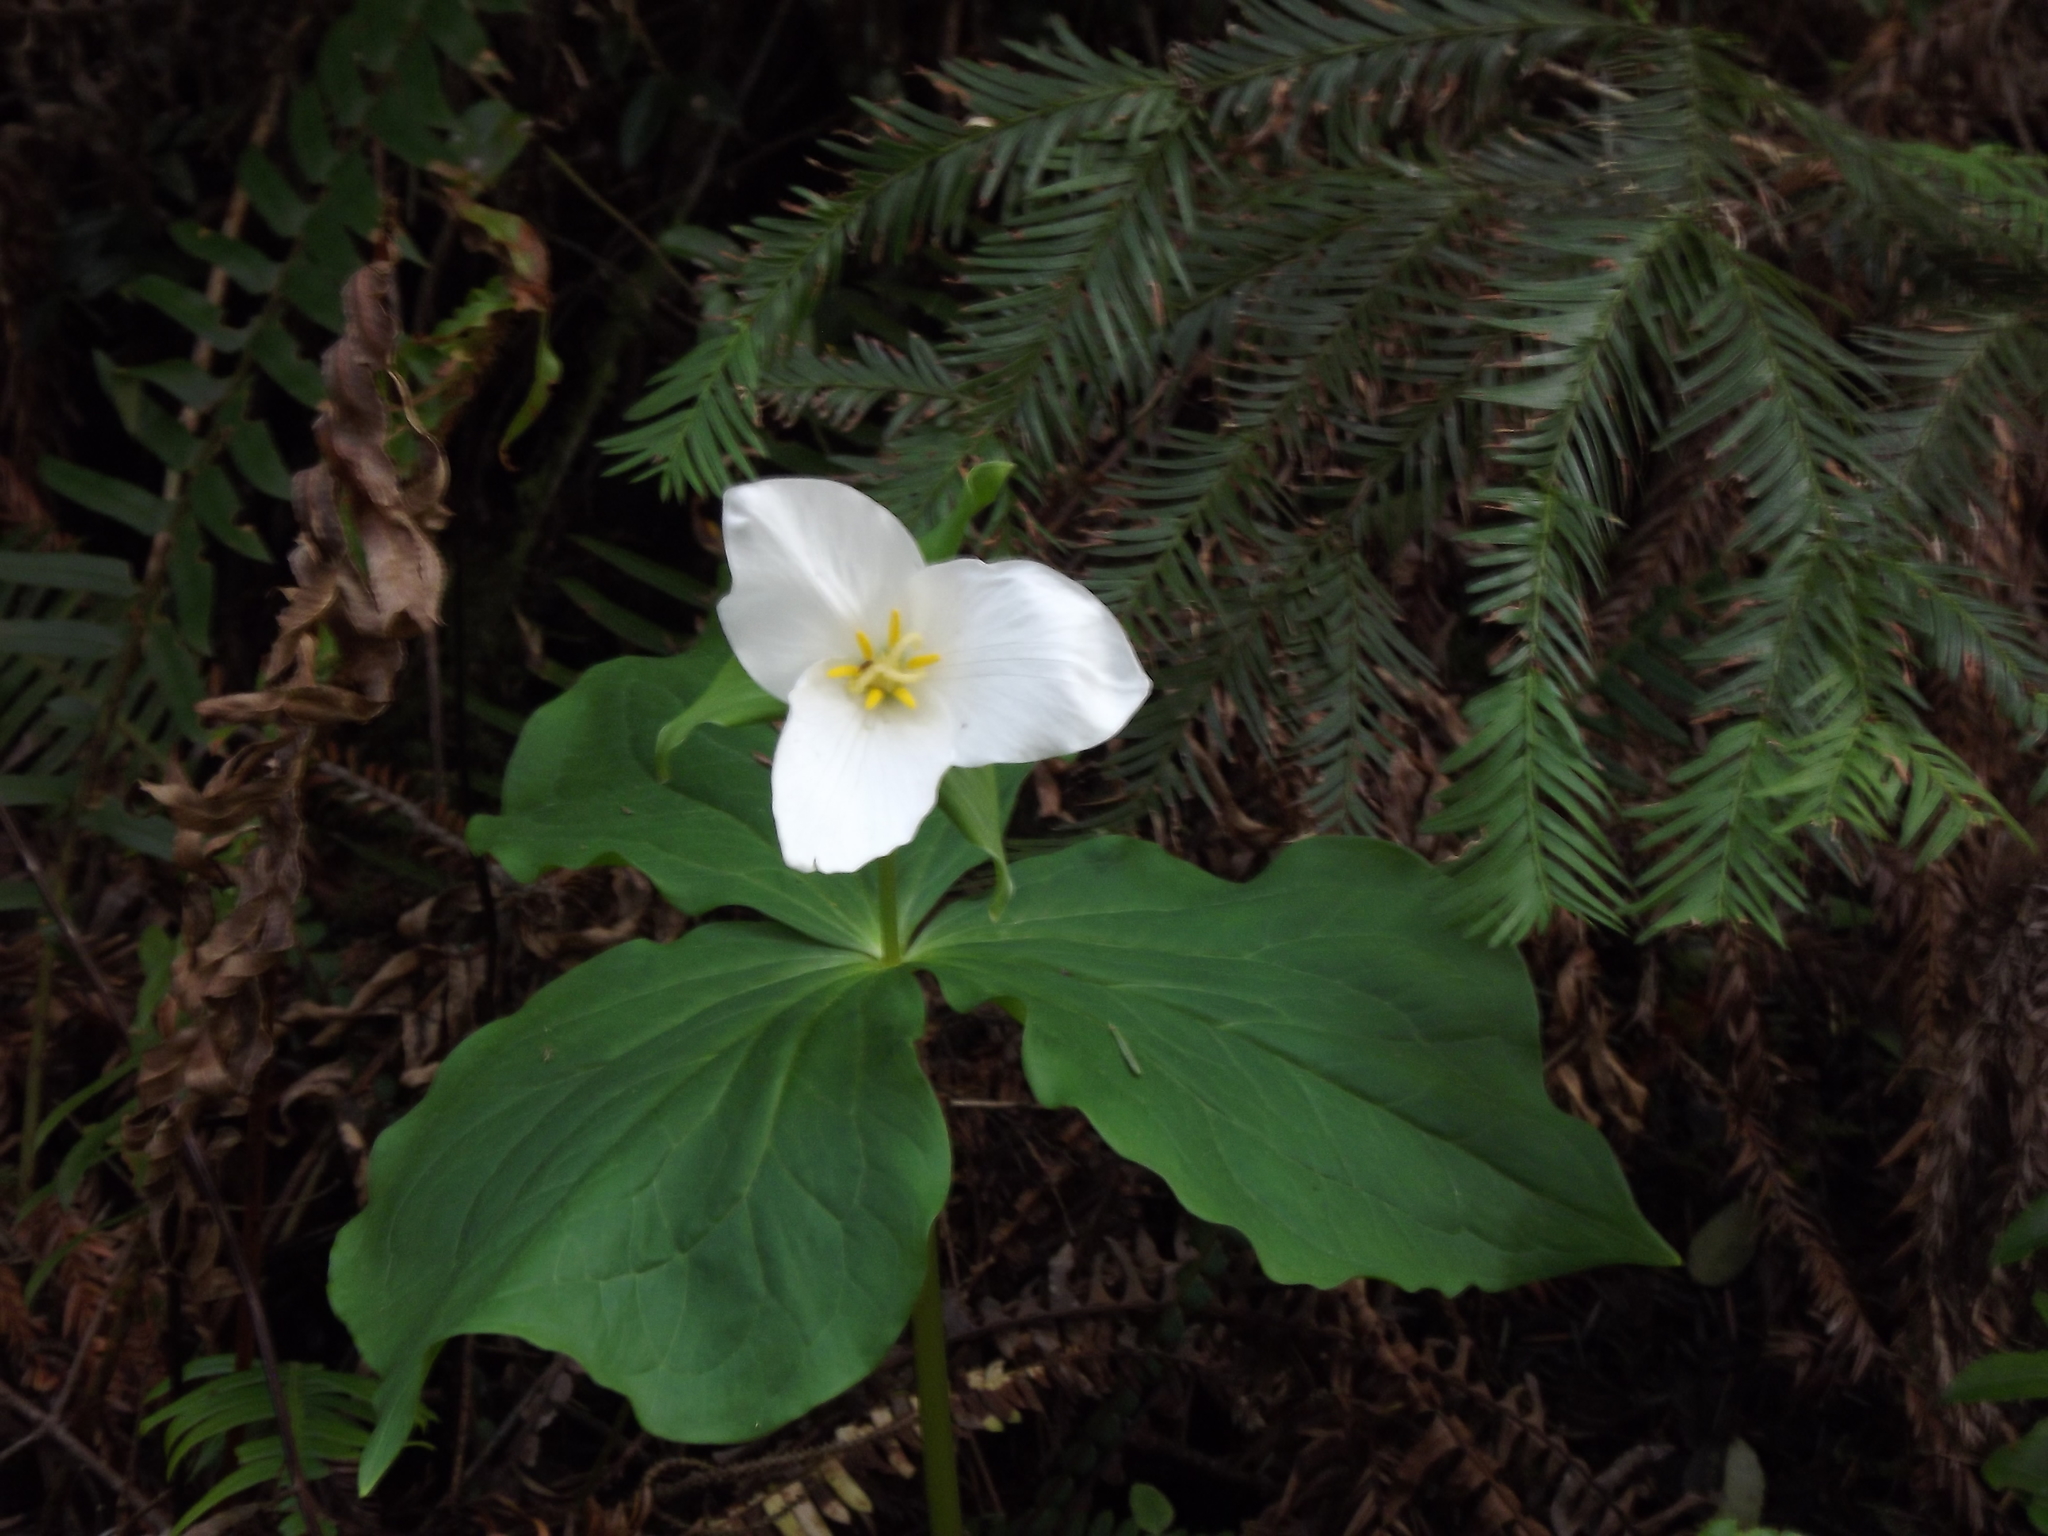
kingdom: Plantae
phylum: Tracheophyta
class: Liliopsida
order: Liliales
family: Melanthiaceae
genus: Trillium
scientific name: Trillium ovatum
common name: Pacific trillium
